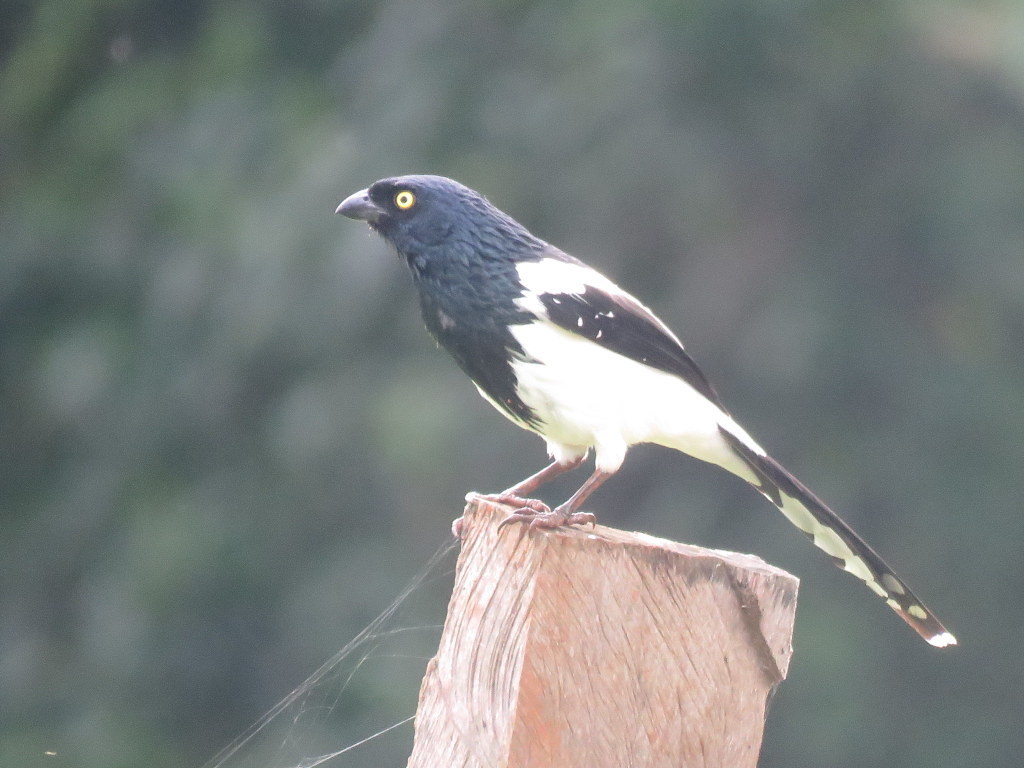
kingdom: Animalia
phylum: Chordata
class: Aves
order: Passeriformes
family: Thraupidae
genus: Cissopis
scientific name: Cissopis leverianus
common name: Magpie tanager
